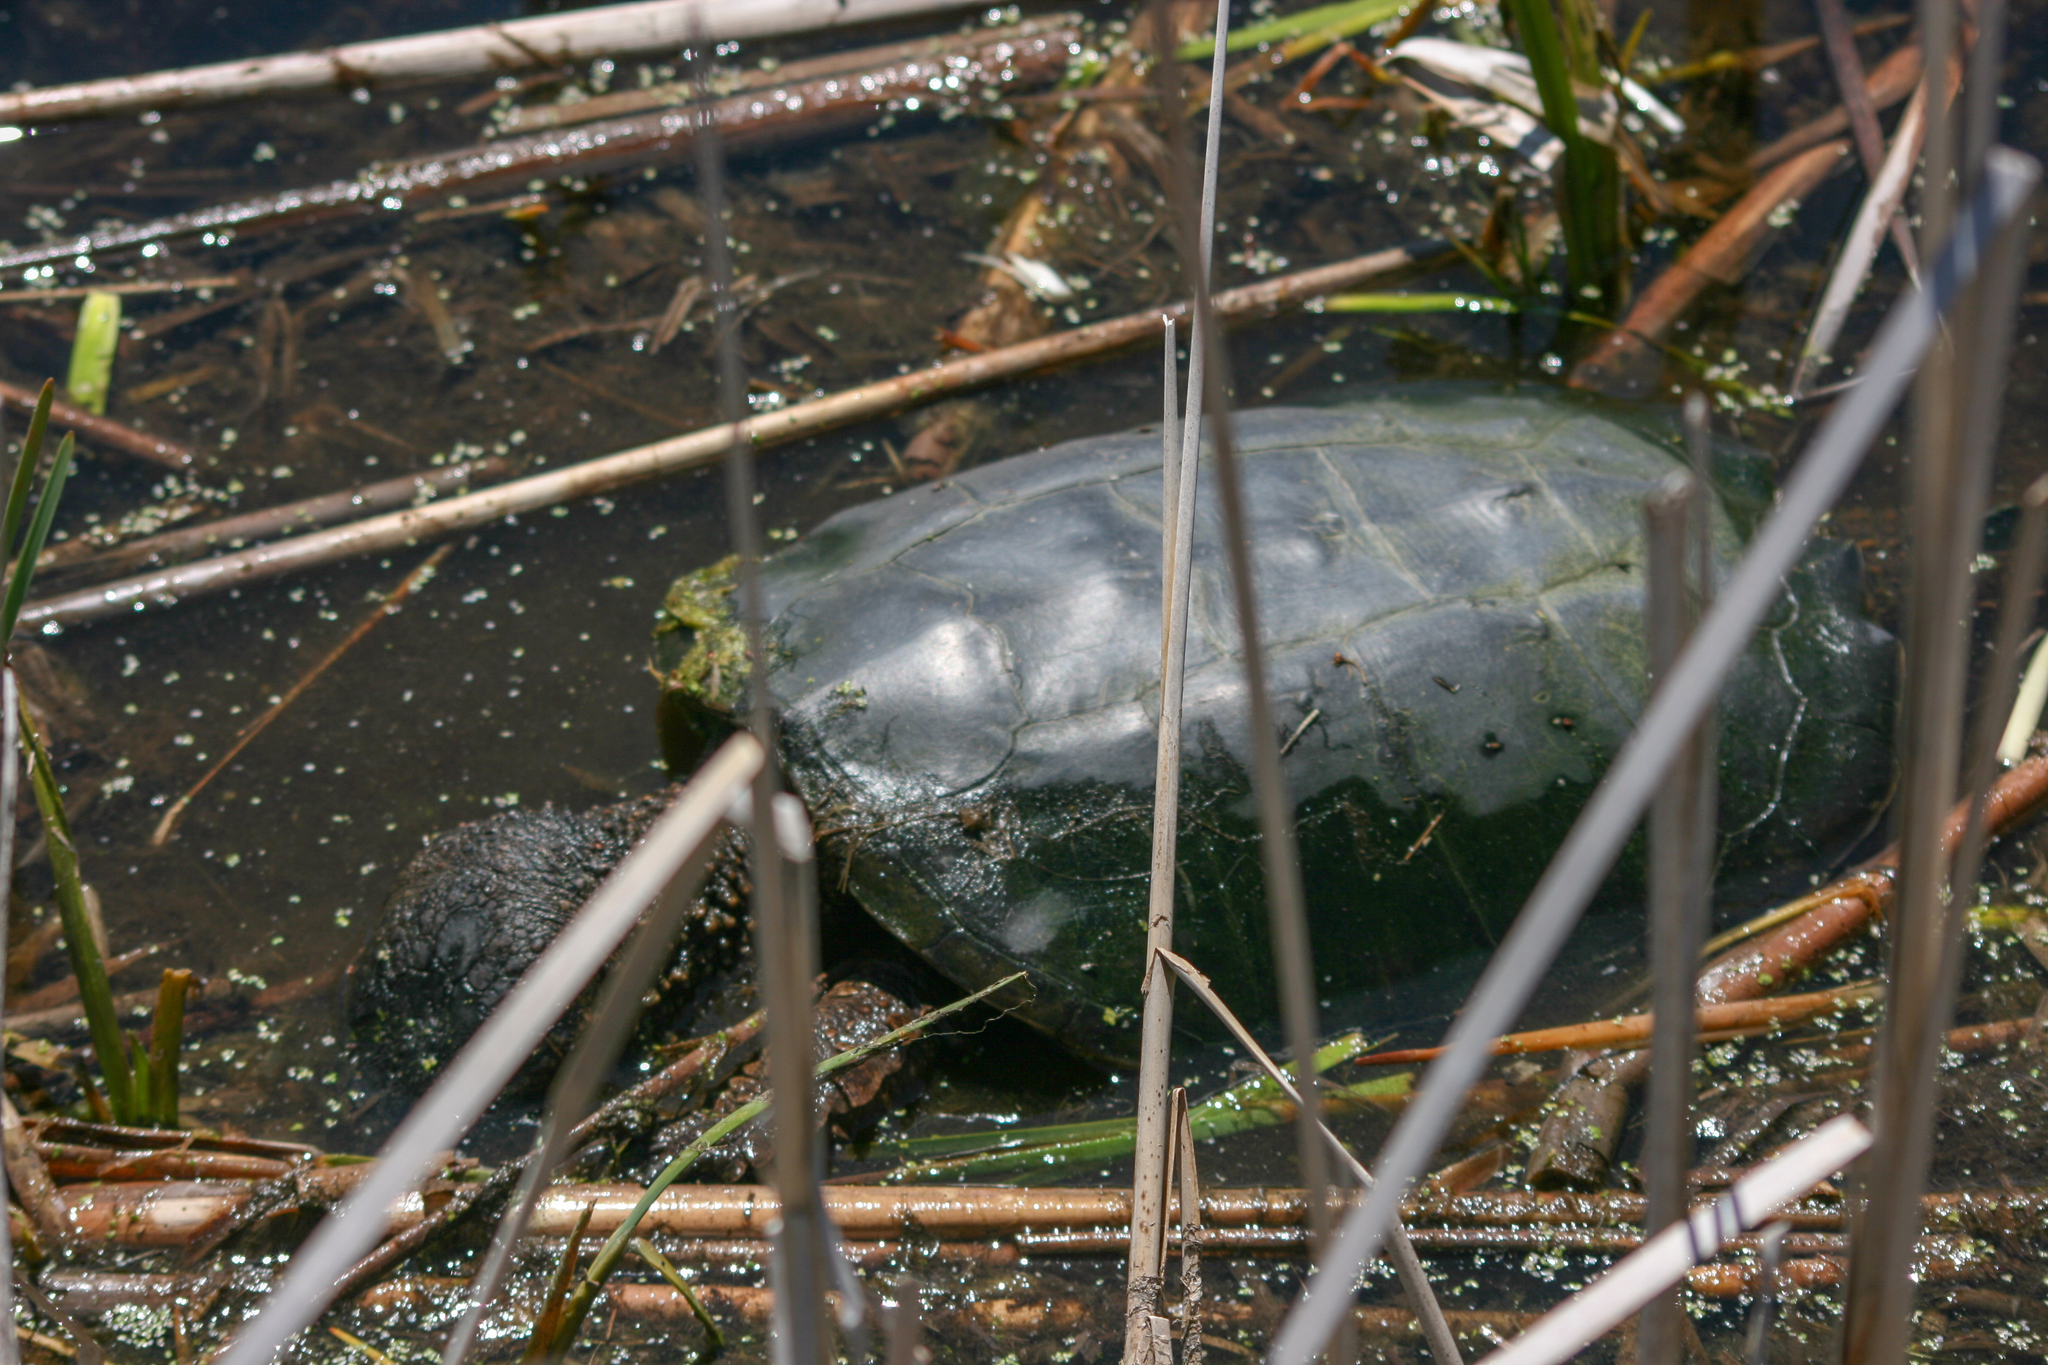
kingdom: Animalia
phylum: Chordata
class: Testudines
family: Chelydridae
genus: Chelydra
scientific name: Chelydra serpentina
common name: Common snapping turtle
